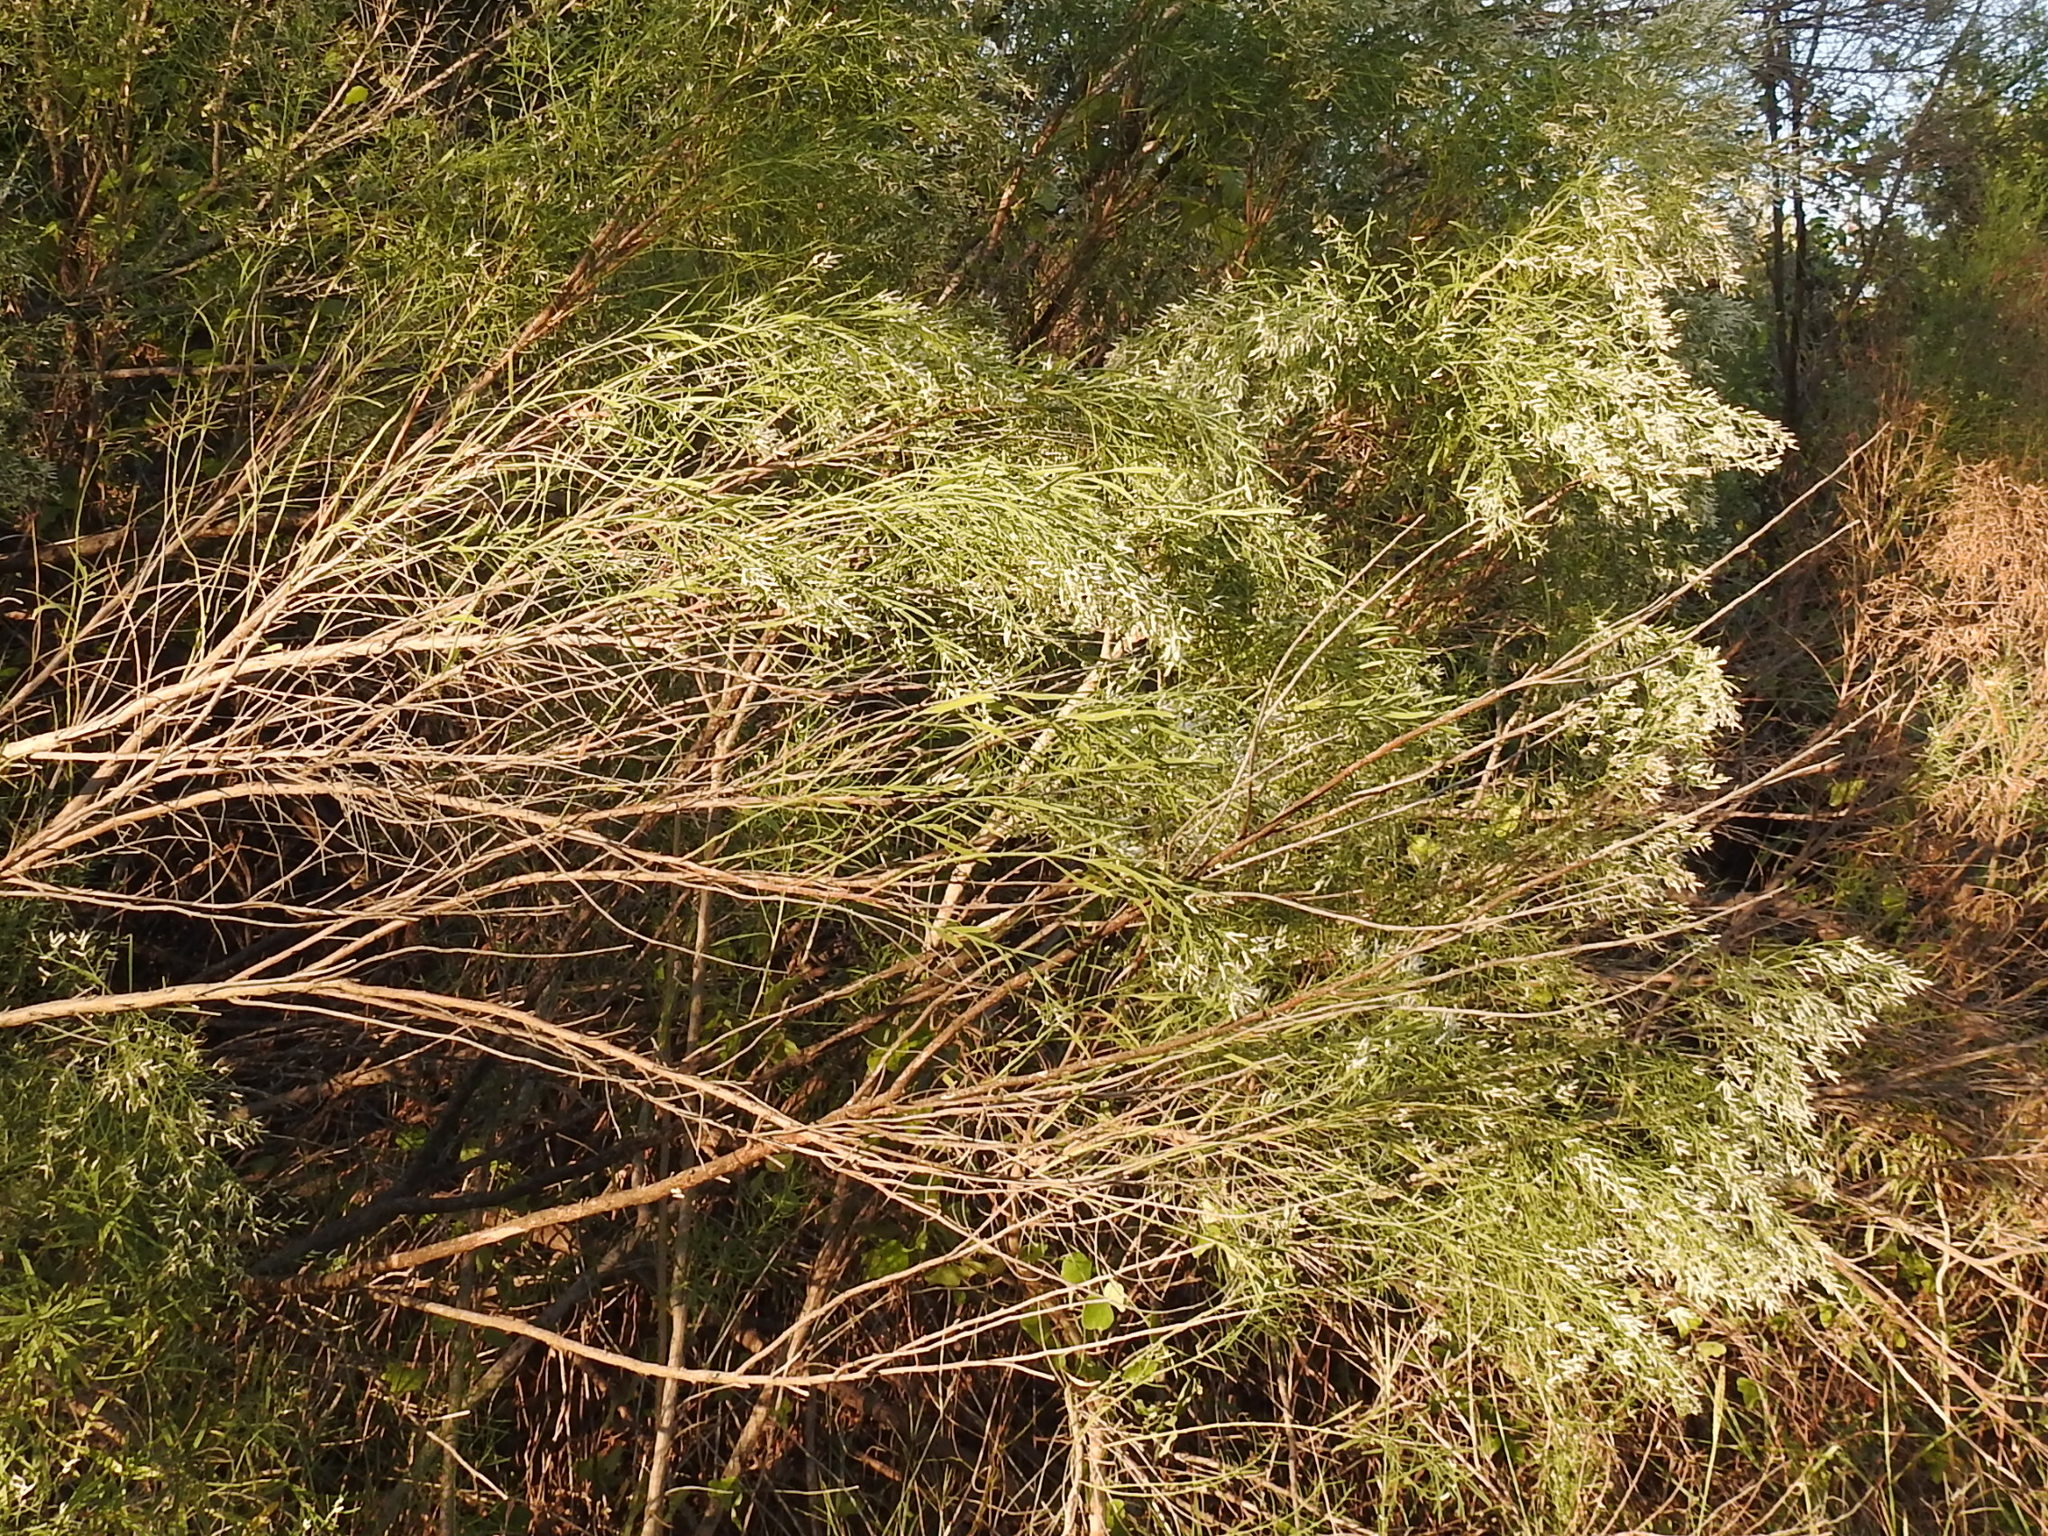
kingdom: Plantae
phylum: Tracheophyta
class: Magnoliopsida
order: Asterales
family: Asteraceae
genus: Baccharis
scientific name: Baccharis neglecta
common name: Roosevelt-weed
